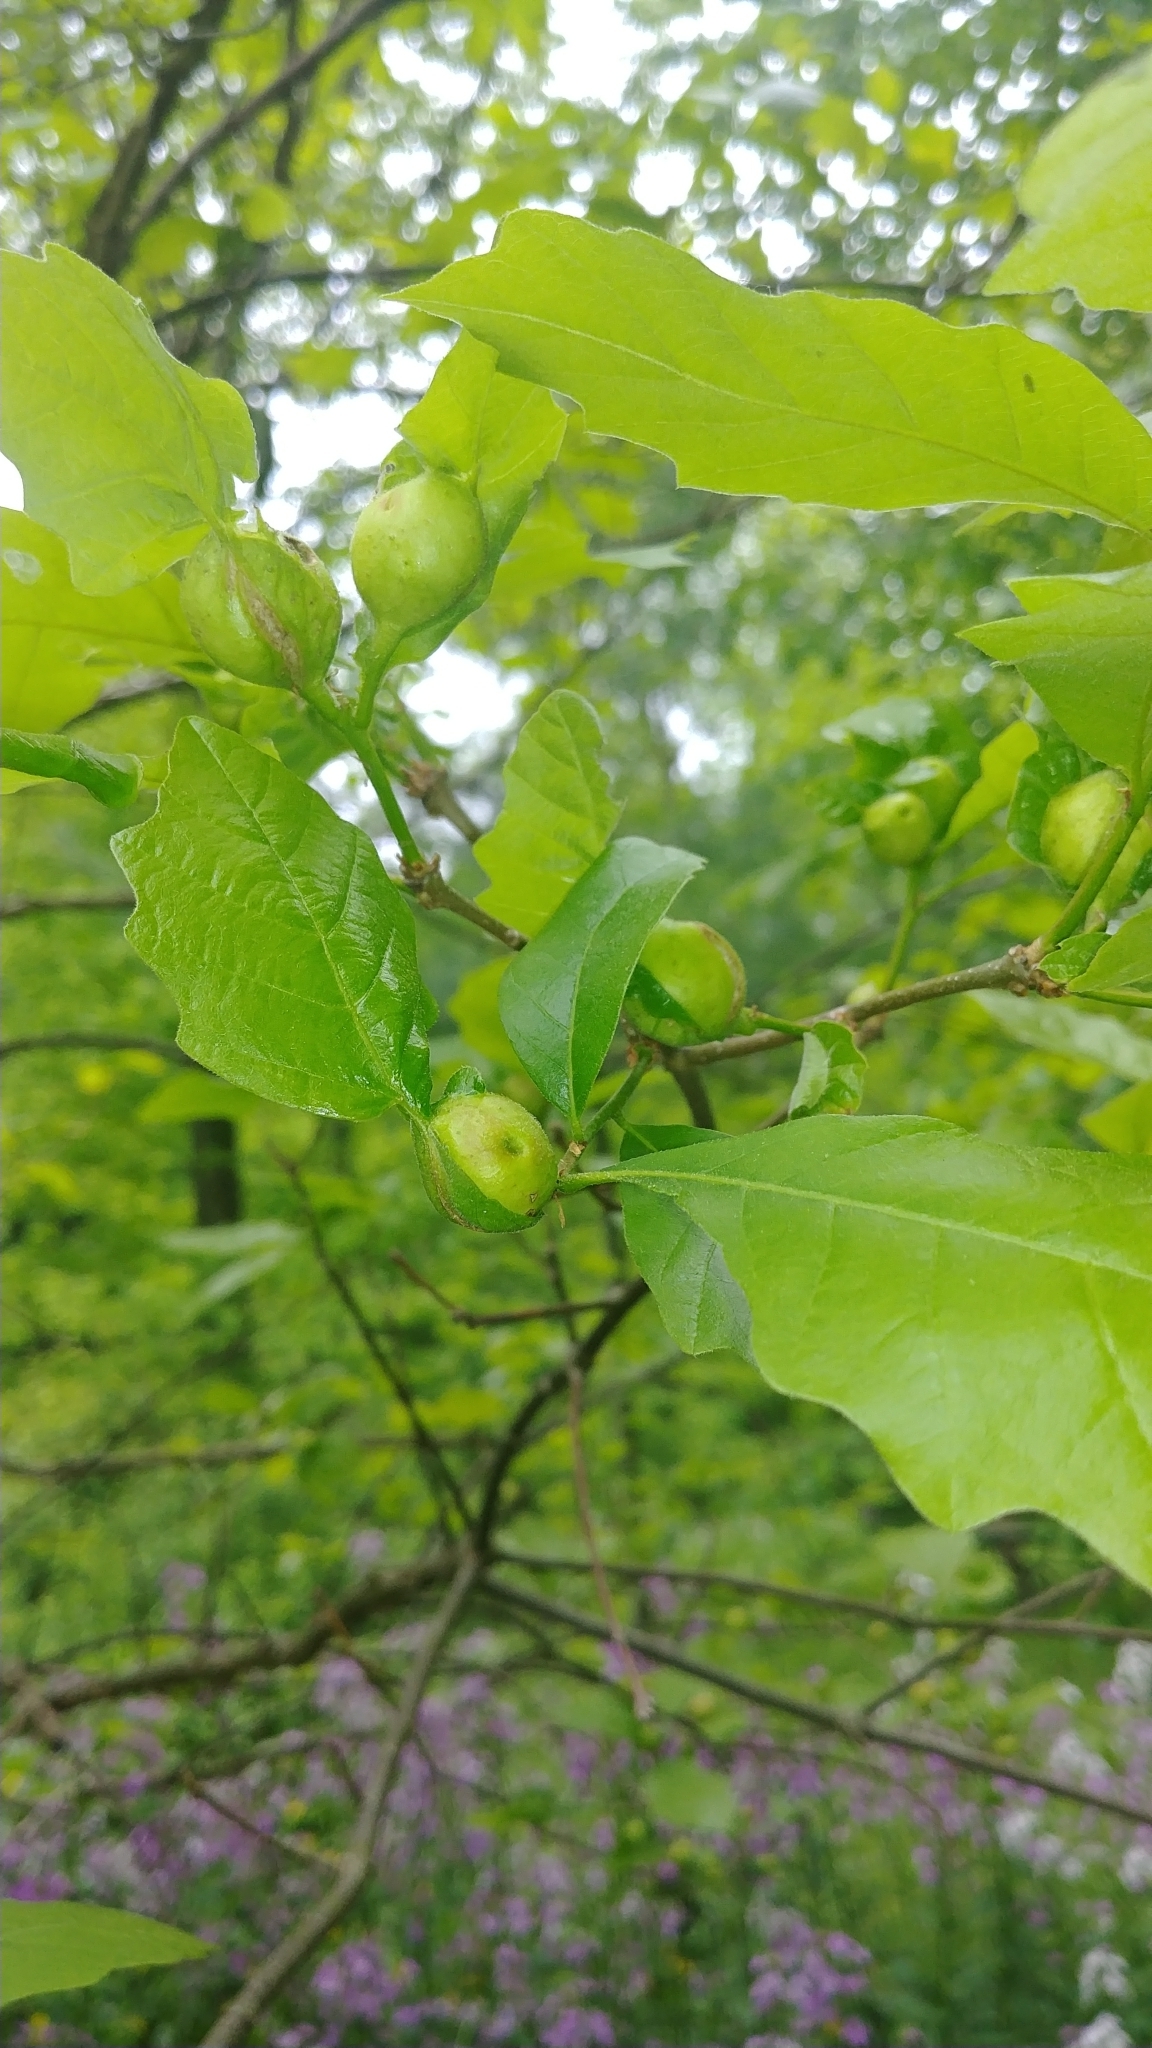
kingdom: Animalia
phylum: Arthropoda
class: Insecta
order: Hymenoptera
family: Cynipidae
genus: Andricus
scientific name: Andricus
